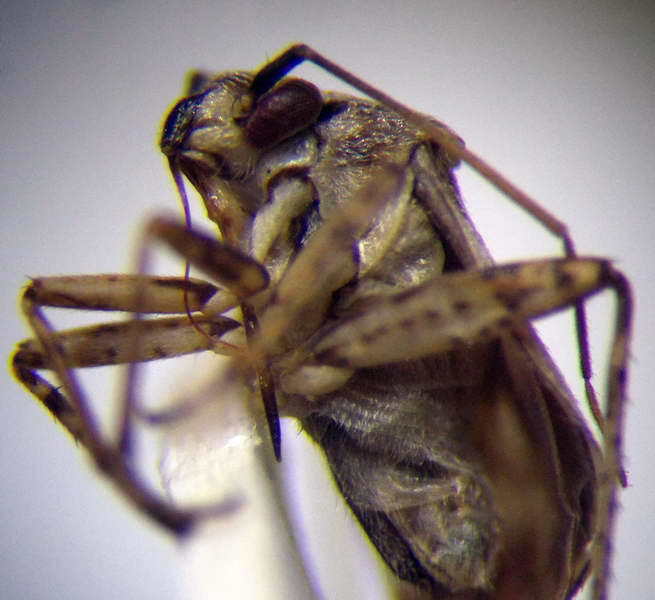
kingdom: Animalia
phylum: Arthropoda
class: Insecta
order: Hemiptera
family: Miridae
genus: Polymerus
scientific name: Polymerus cognatus
